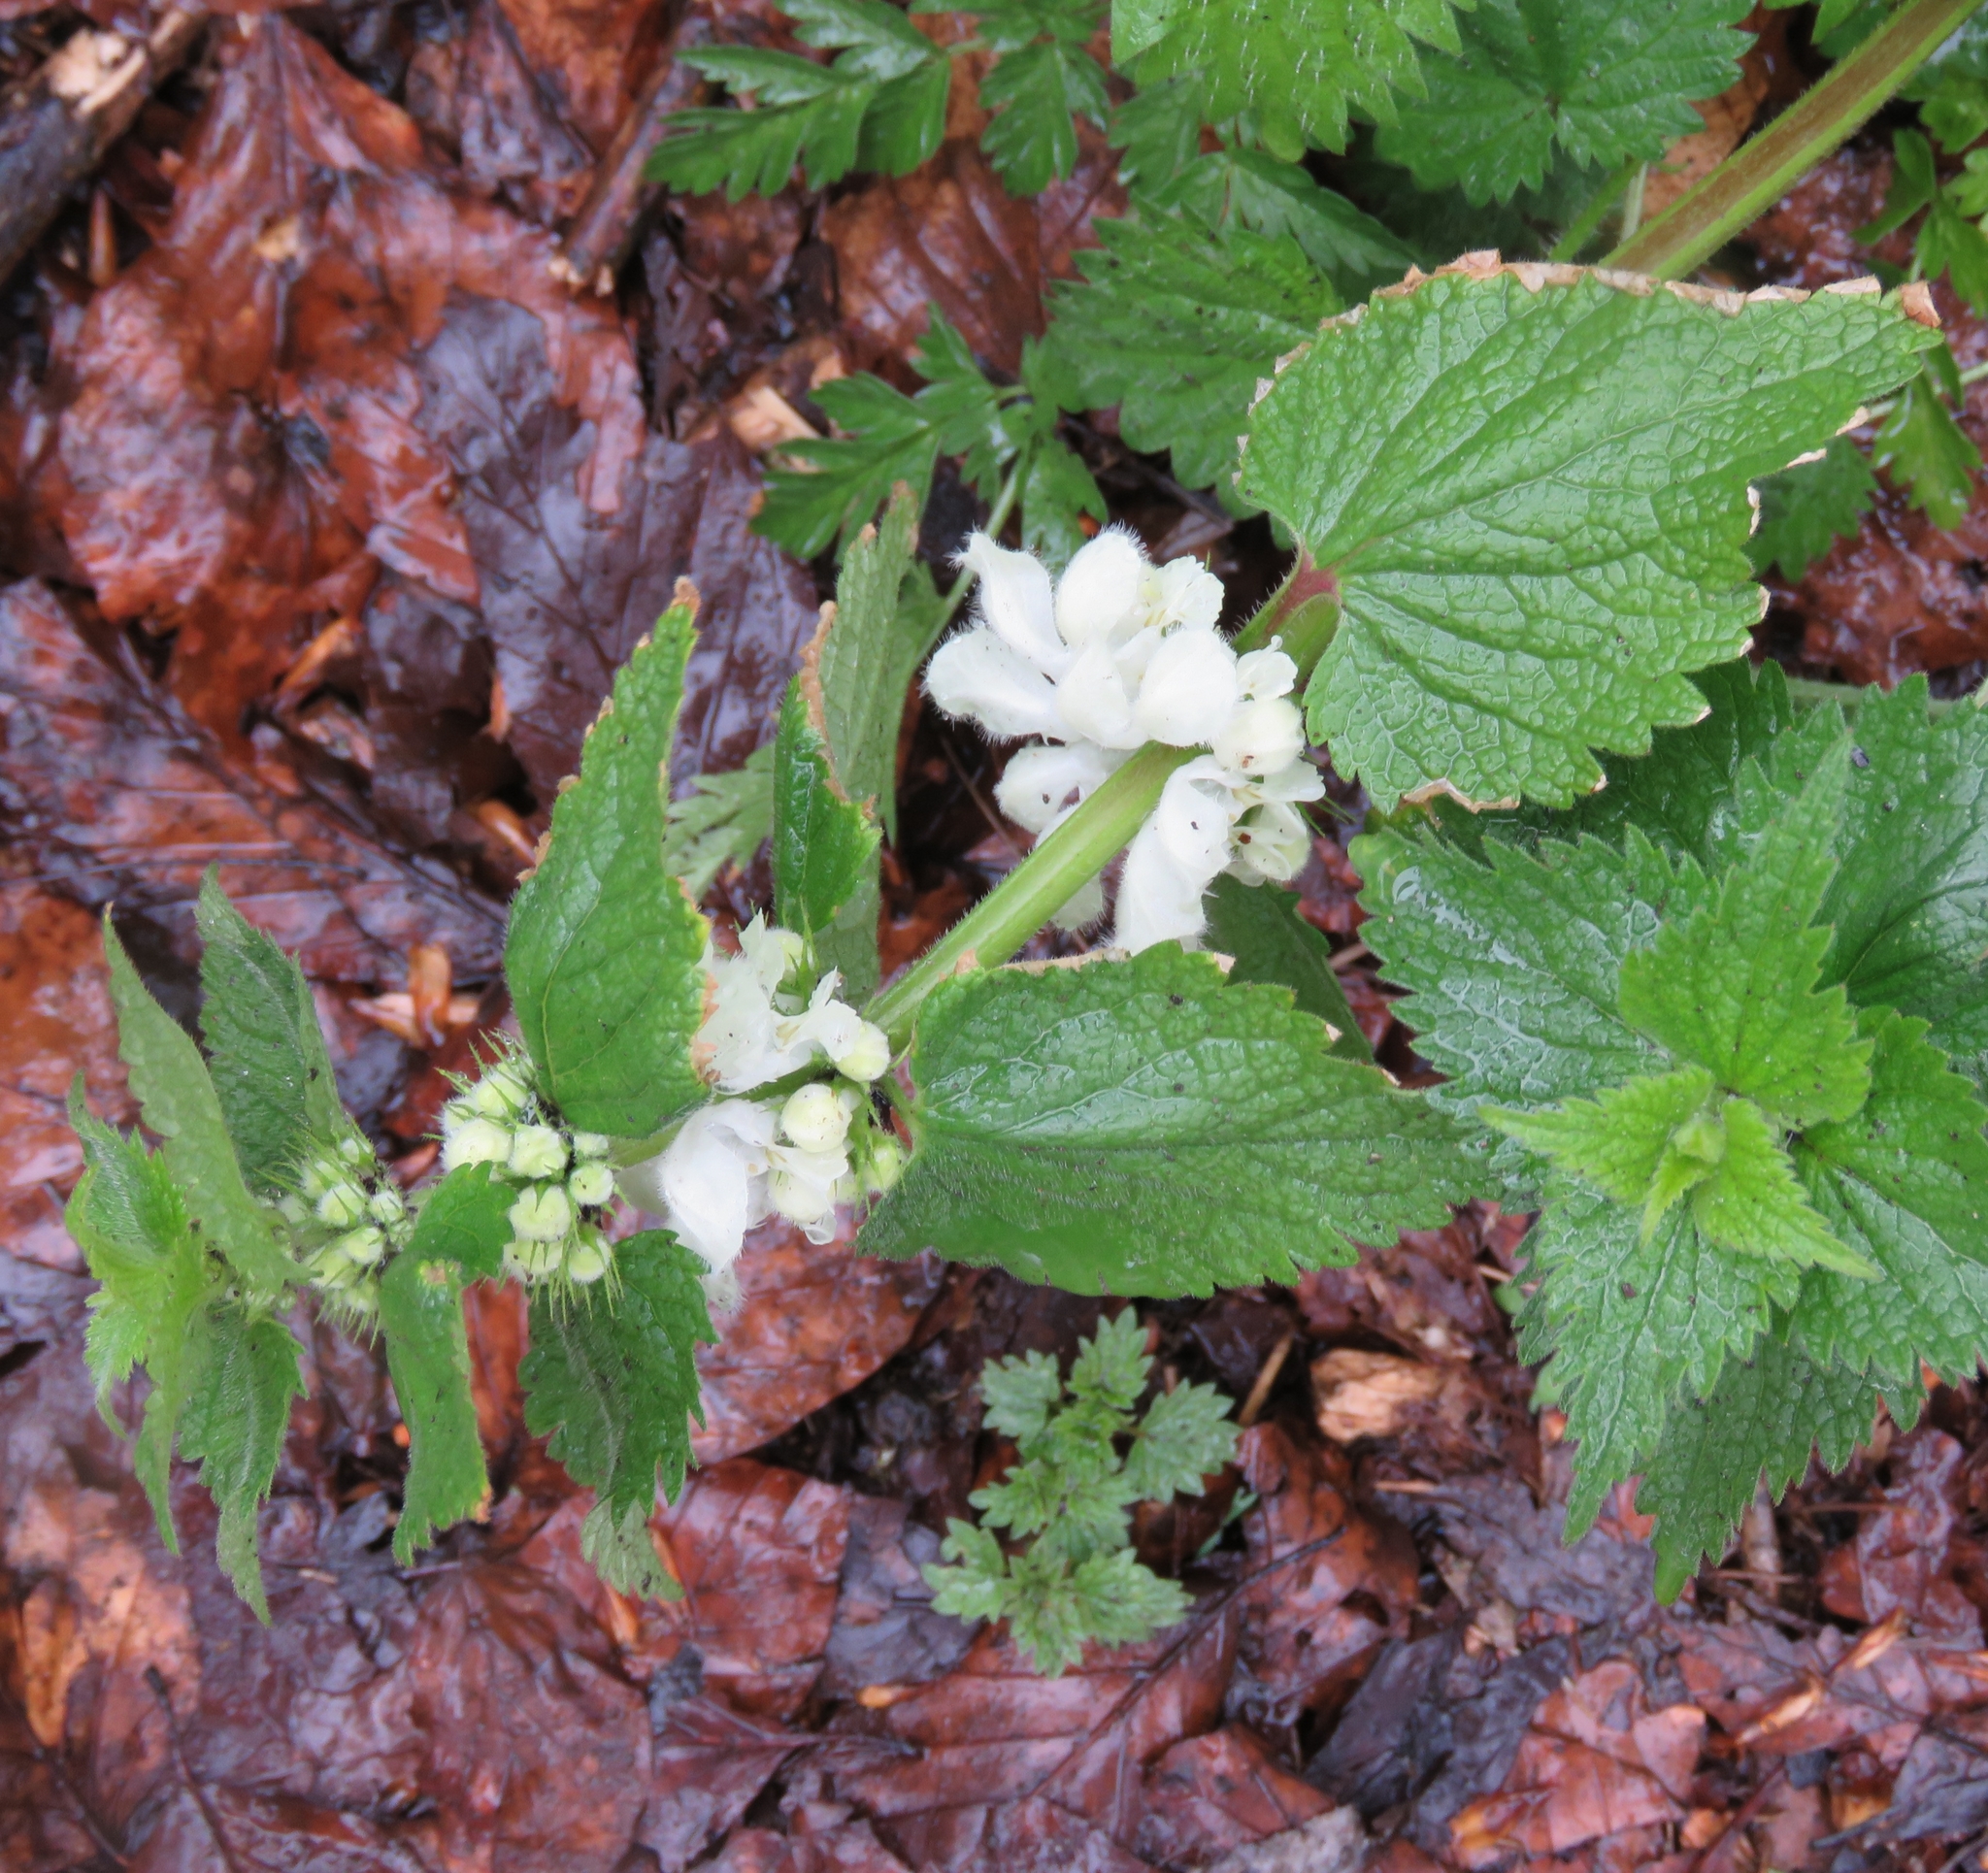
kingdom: Plantae
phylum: Tracheophyta
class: Magnoliopsida
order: Lamiales
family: Lamiaceae
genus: Lamium
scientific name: Lamium album
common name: White dead-nettle
